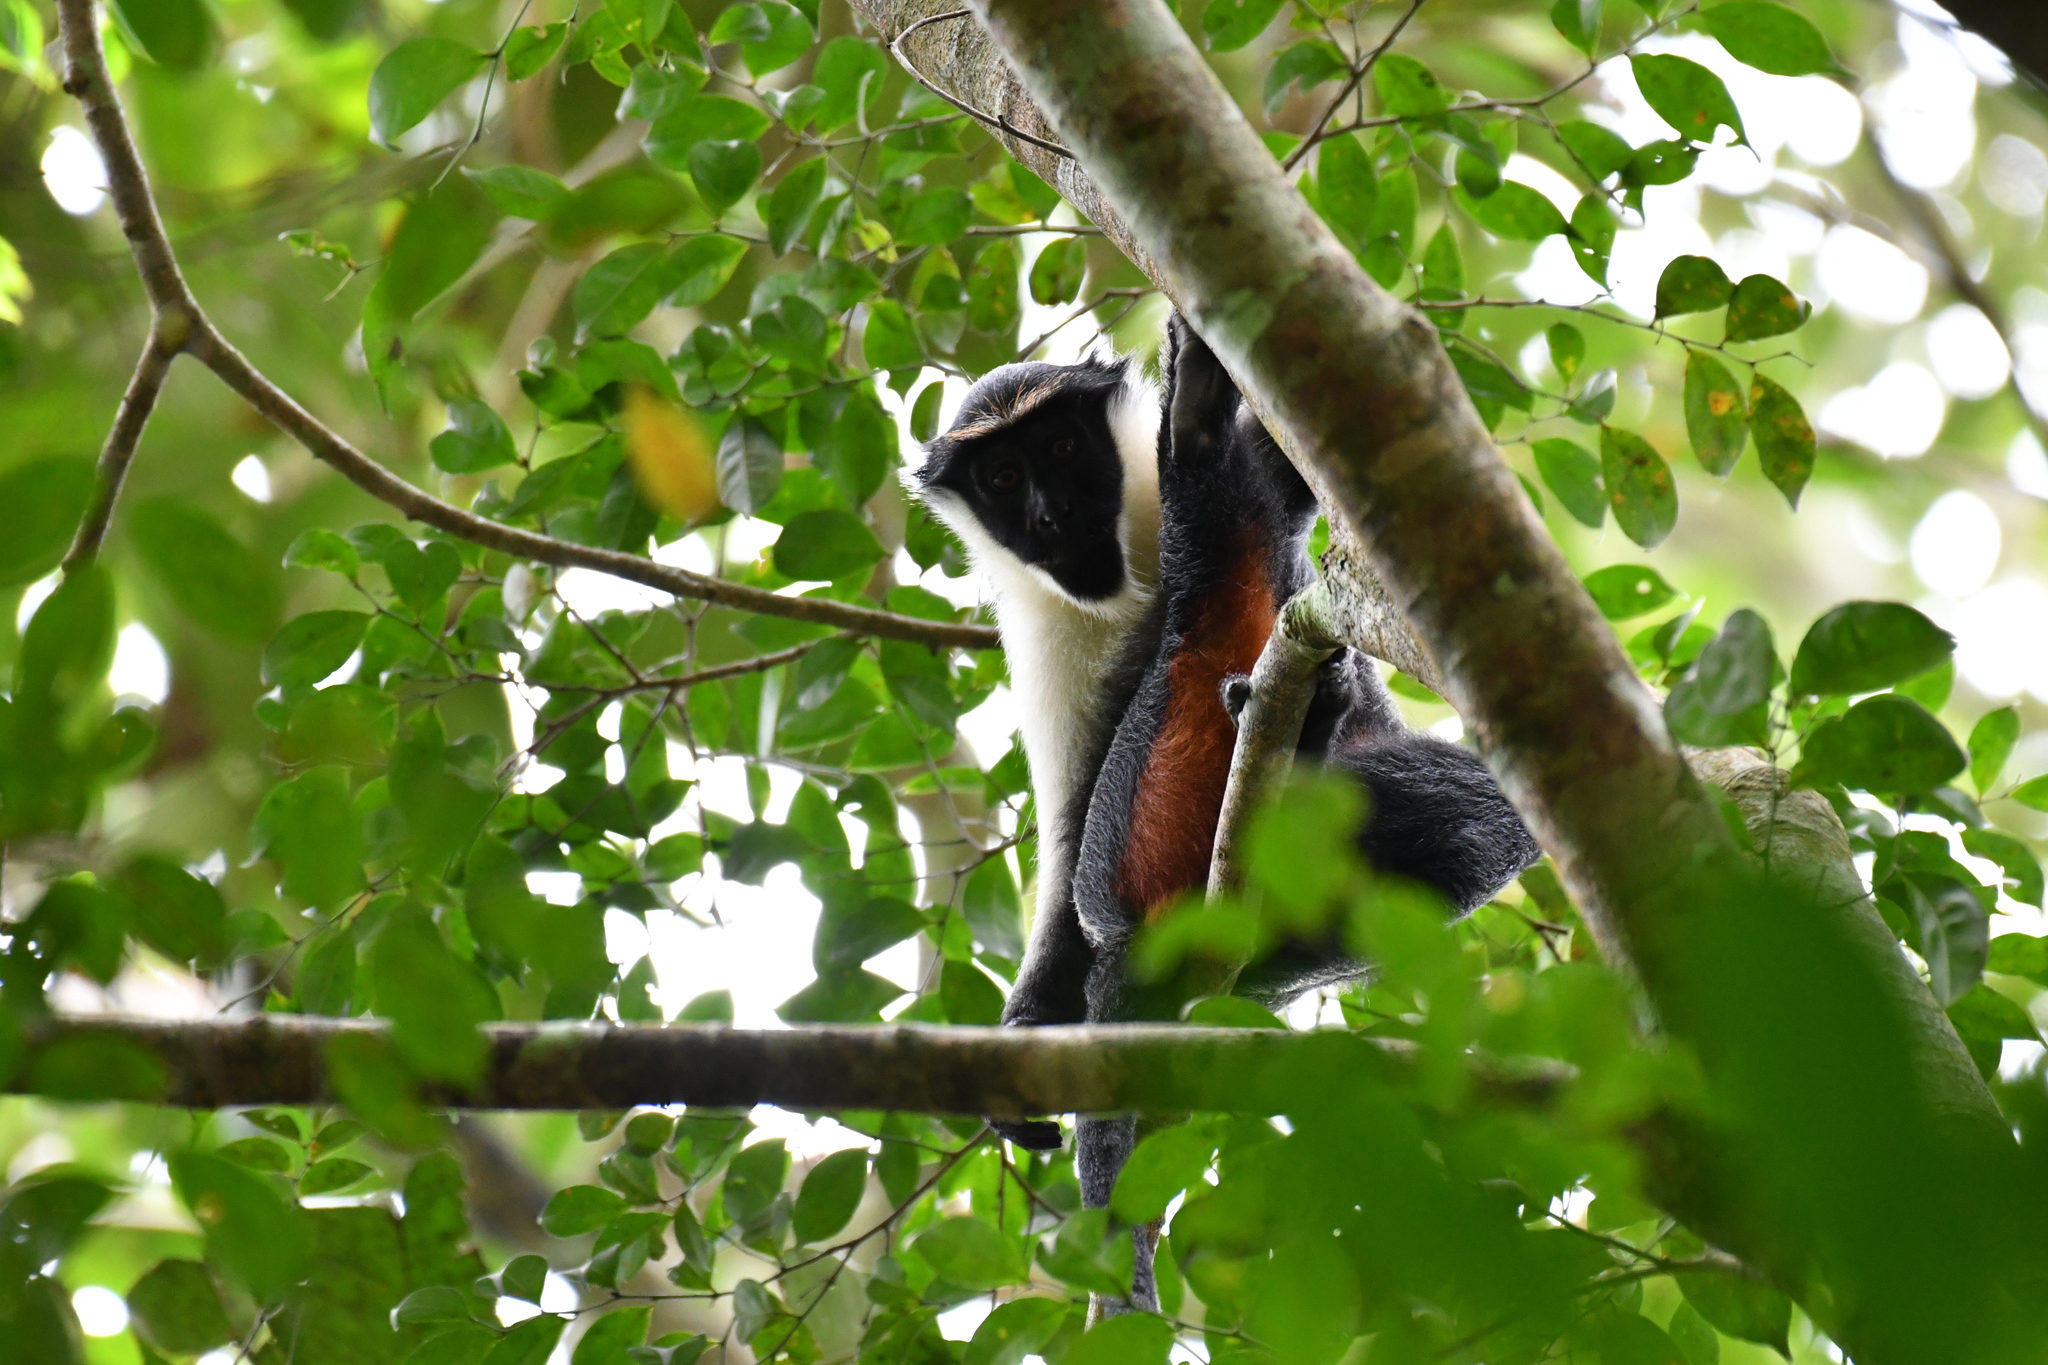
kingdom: Animalia
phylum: Chordata
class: Mammalia
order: Primates
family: Cercopithecidae
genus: Cercopithecus
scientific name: Cercopithecus diana
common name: Diana monkey
